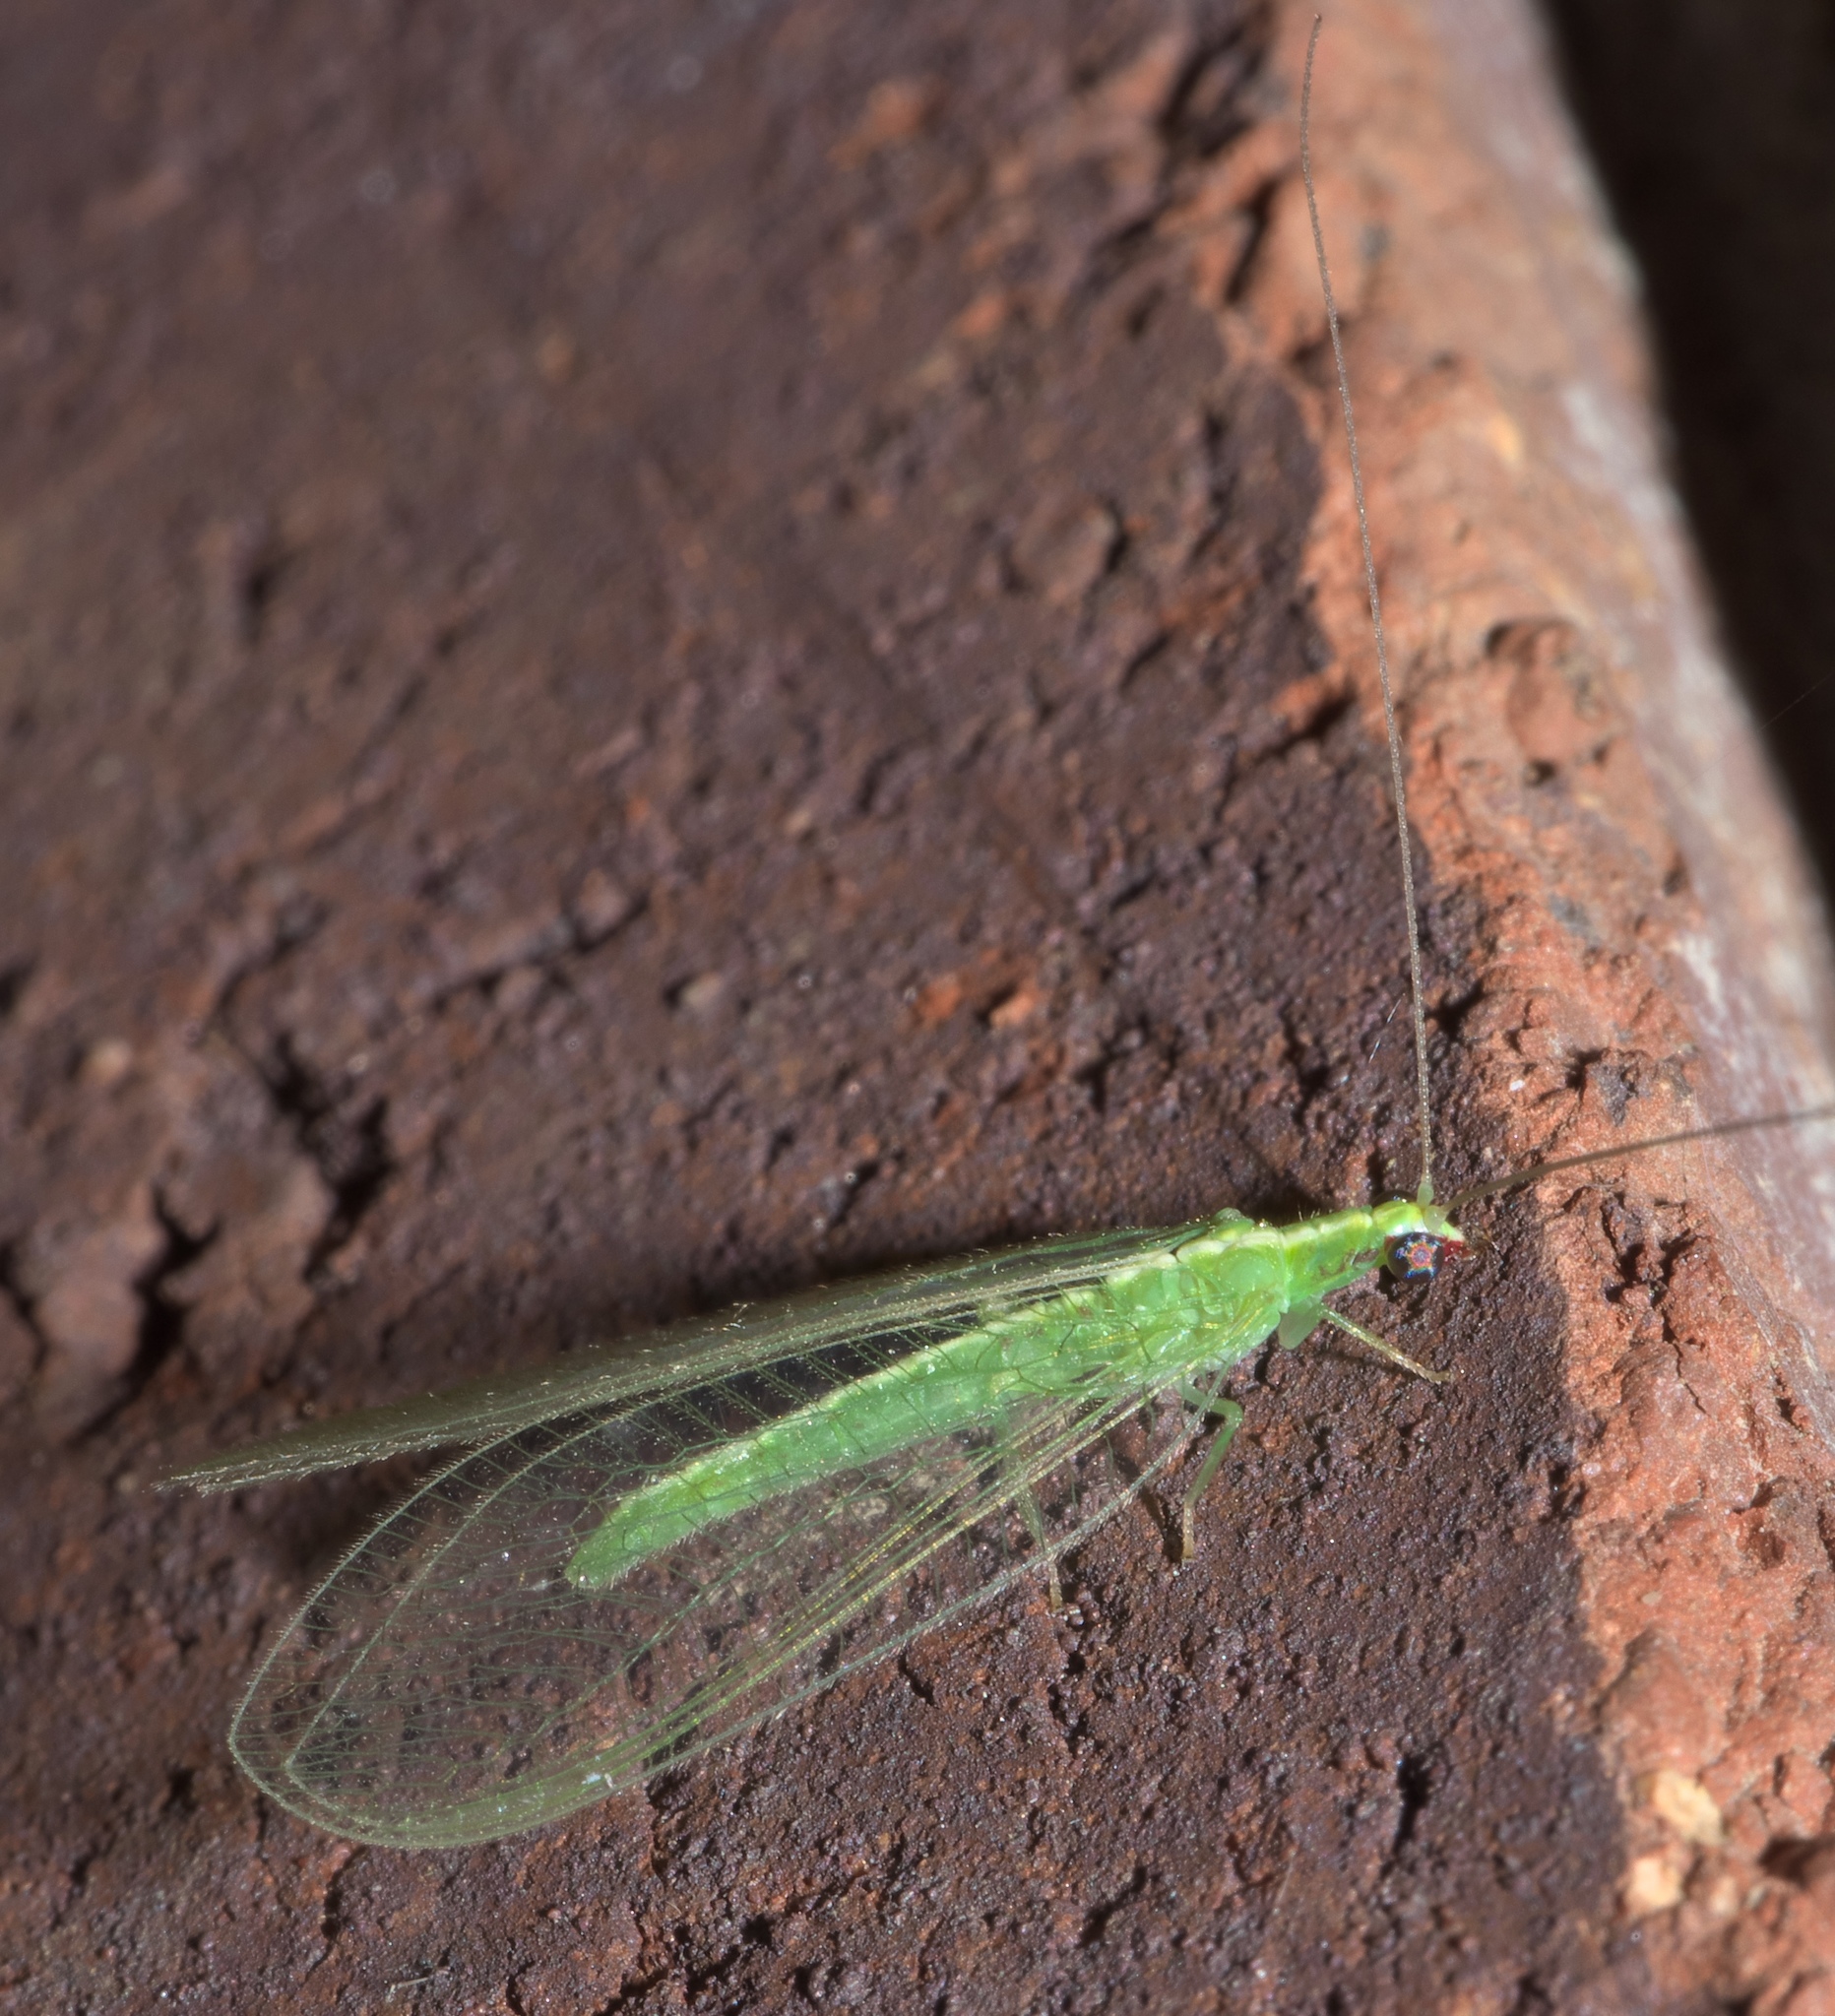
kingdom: Animalia
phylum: Arthropoda
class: Insecta
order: Neuroptera
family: Chrysopidae
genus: Chrysoperla
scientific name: Chrysoperla rufilabris
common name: Red-lipped green lacewing
